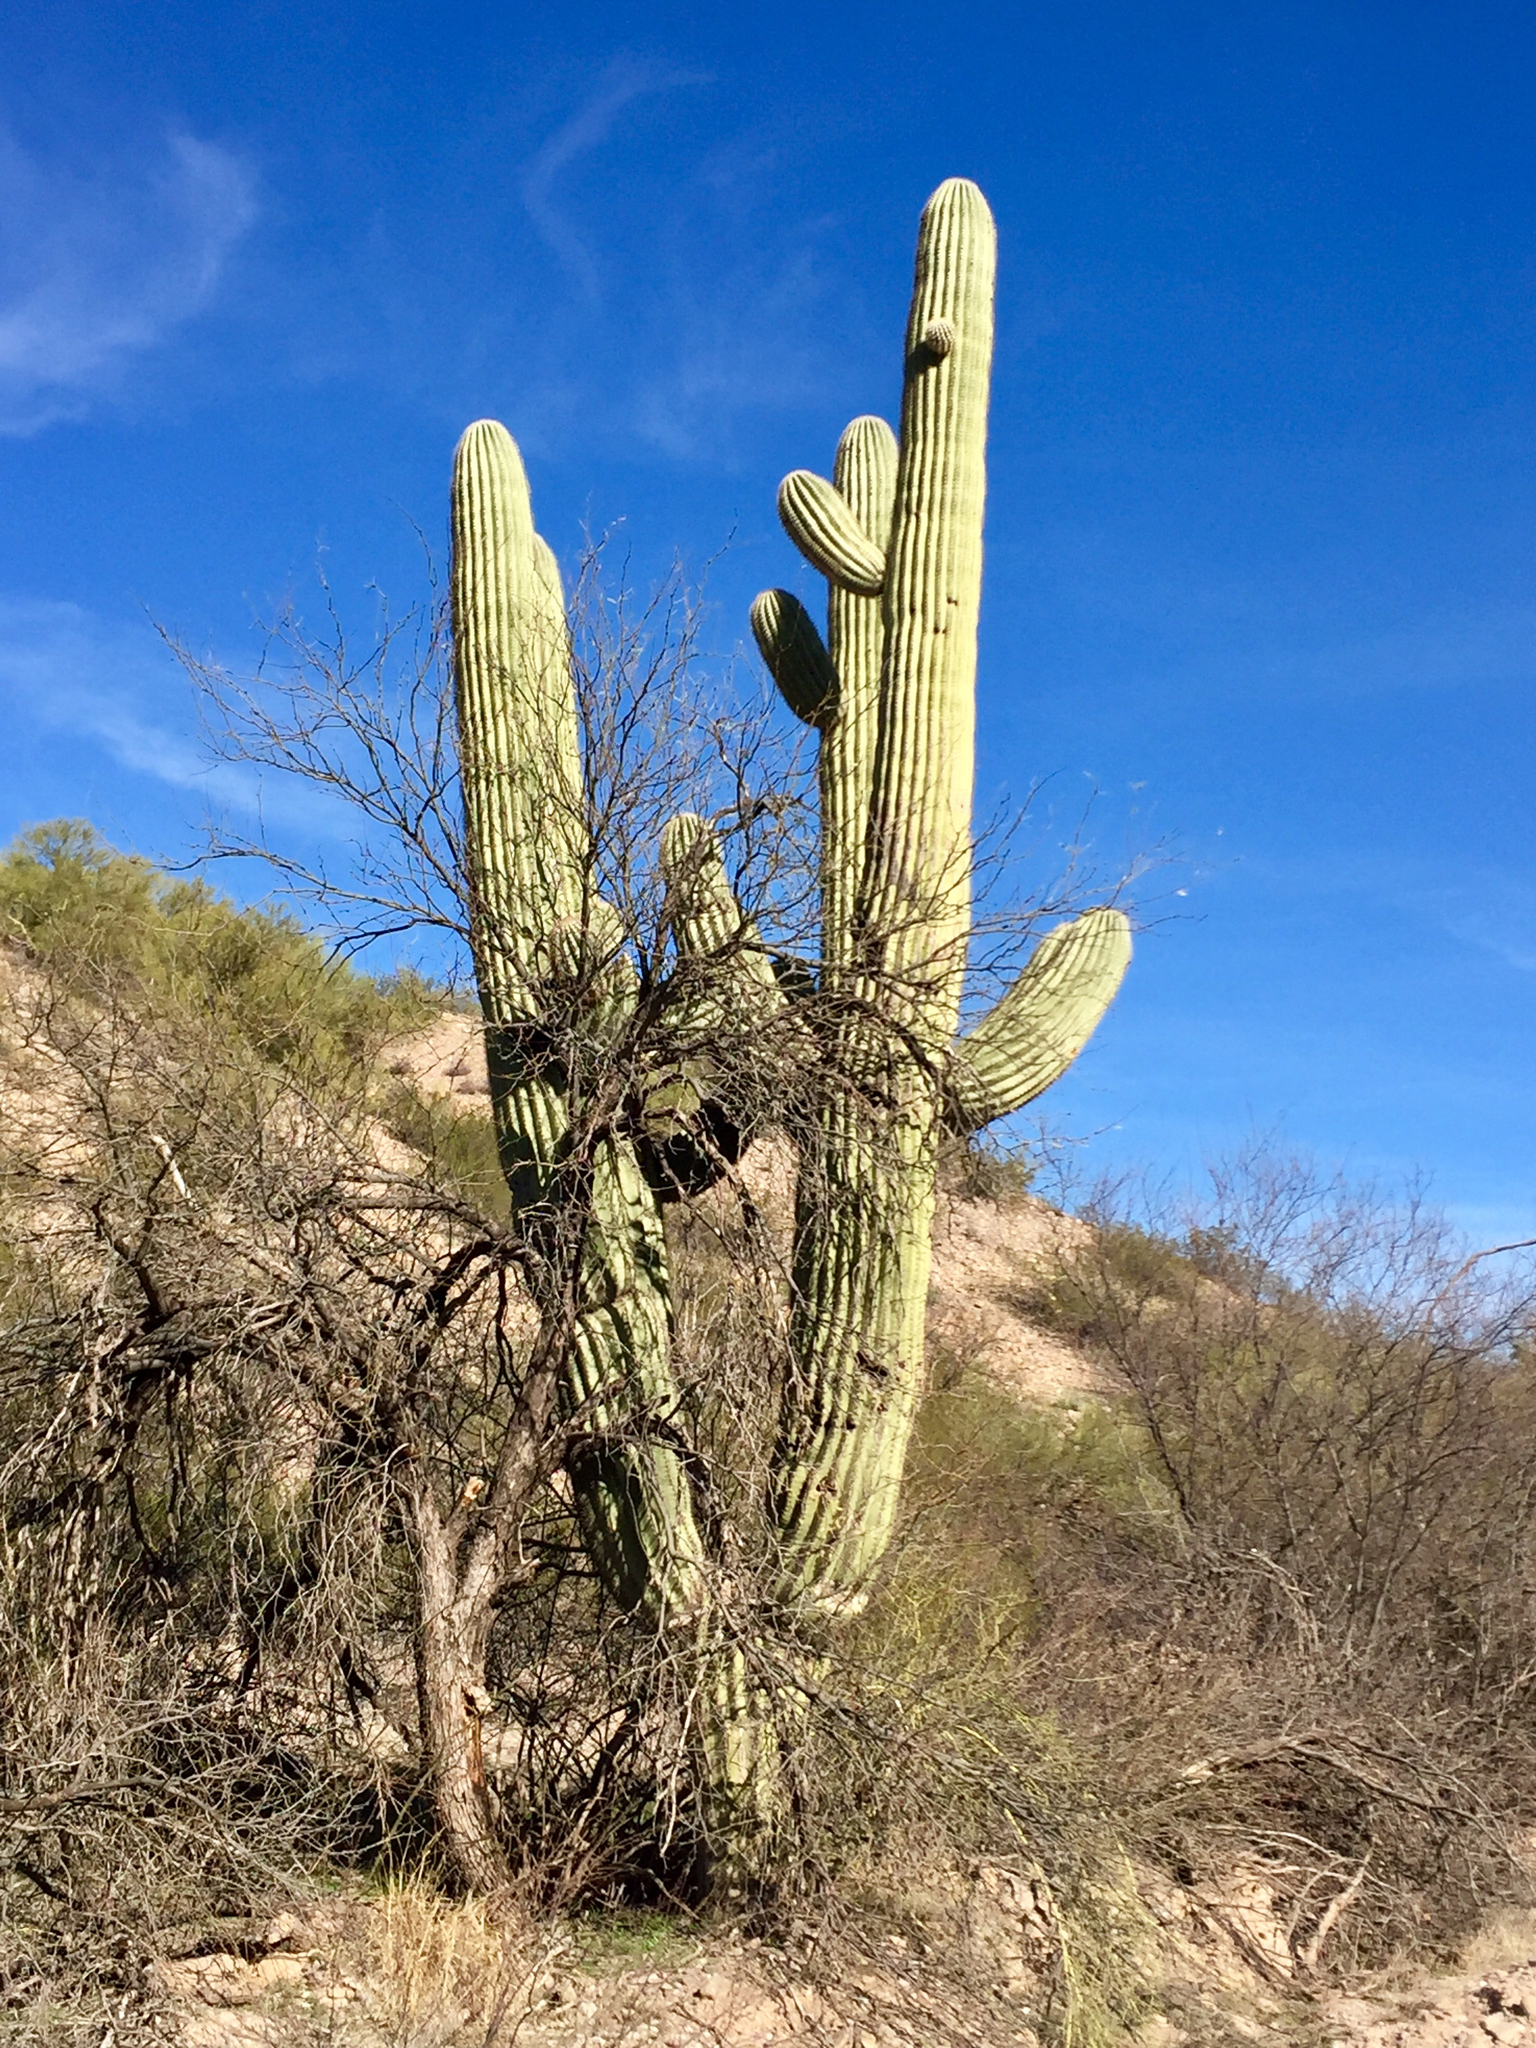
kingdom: Plantae
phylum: Tracheophyta
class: Magnoliopsida
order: Caryophyllales
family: Cactaceae
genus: Carnegiea
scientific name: Carnegiea gigantea
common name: Saguaro
